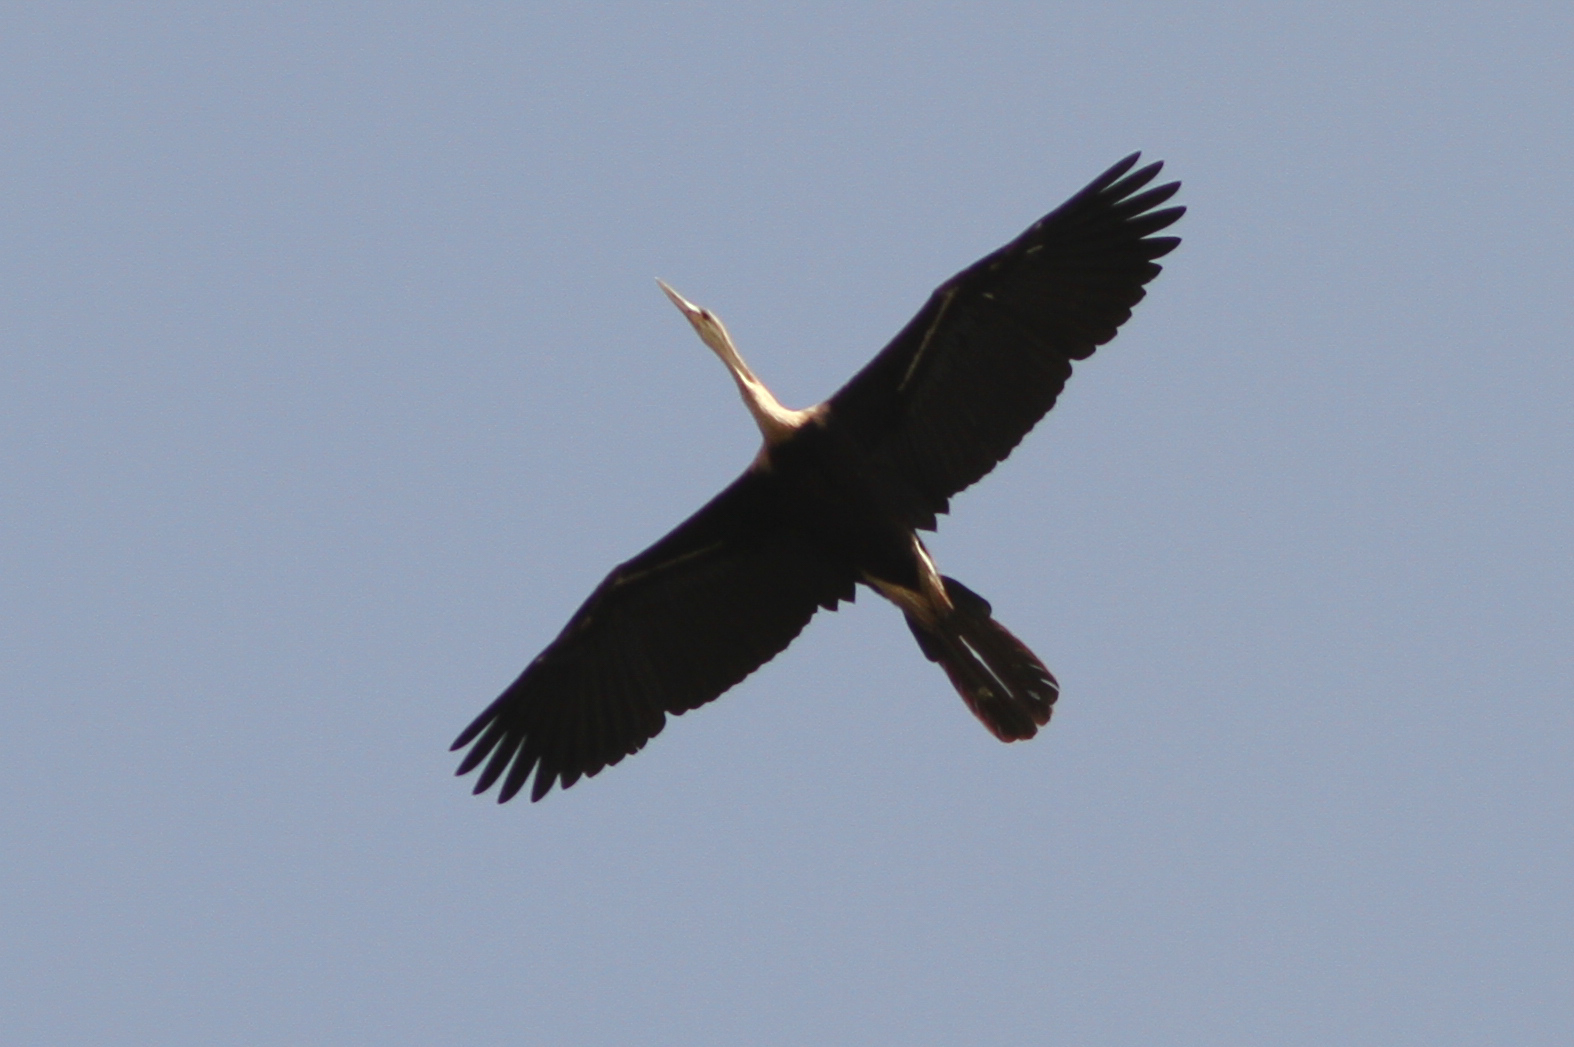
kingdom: Animalia
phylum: Chordata
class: Aves
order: Suliformes
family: Anhingidae
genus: Anhinga
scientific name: Anhinga rufa
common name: African darter
